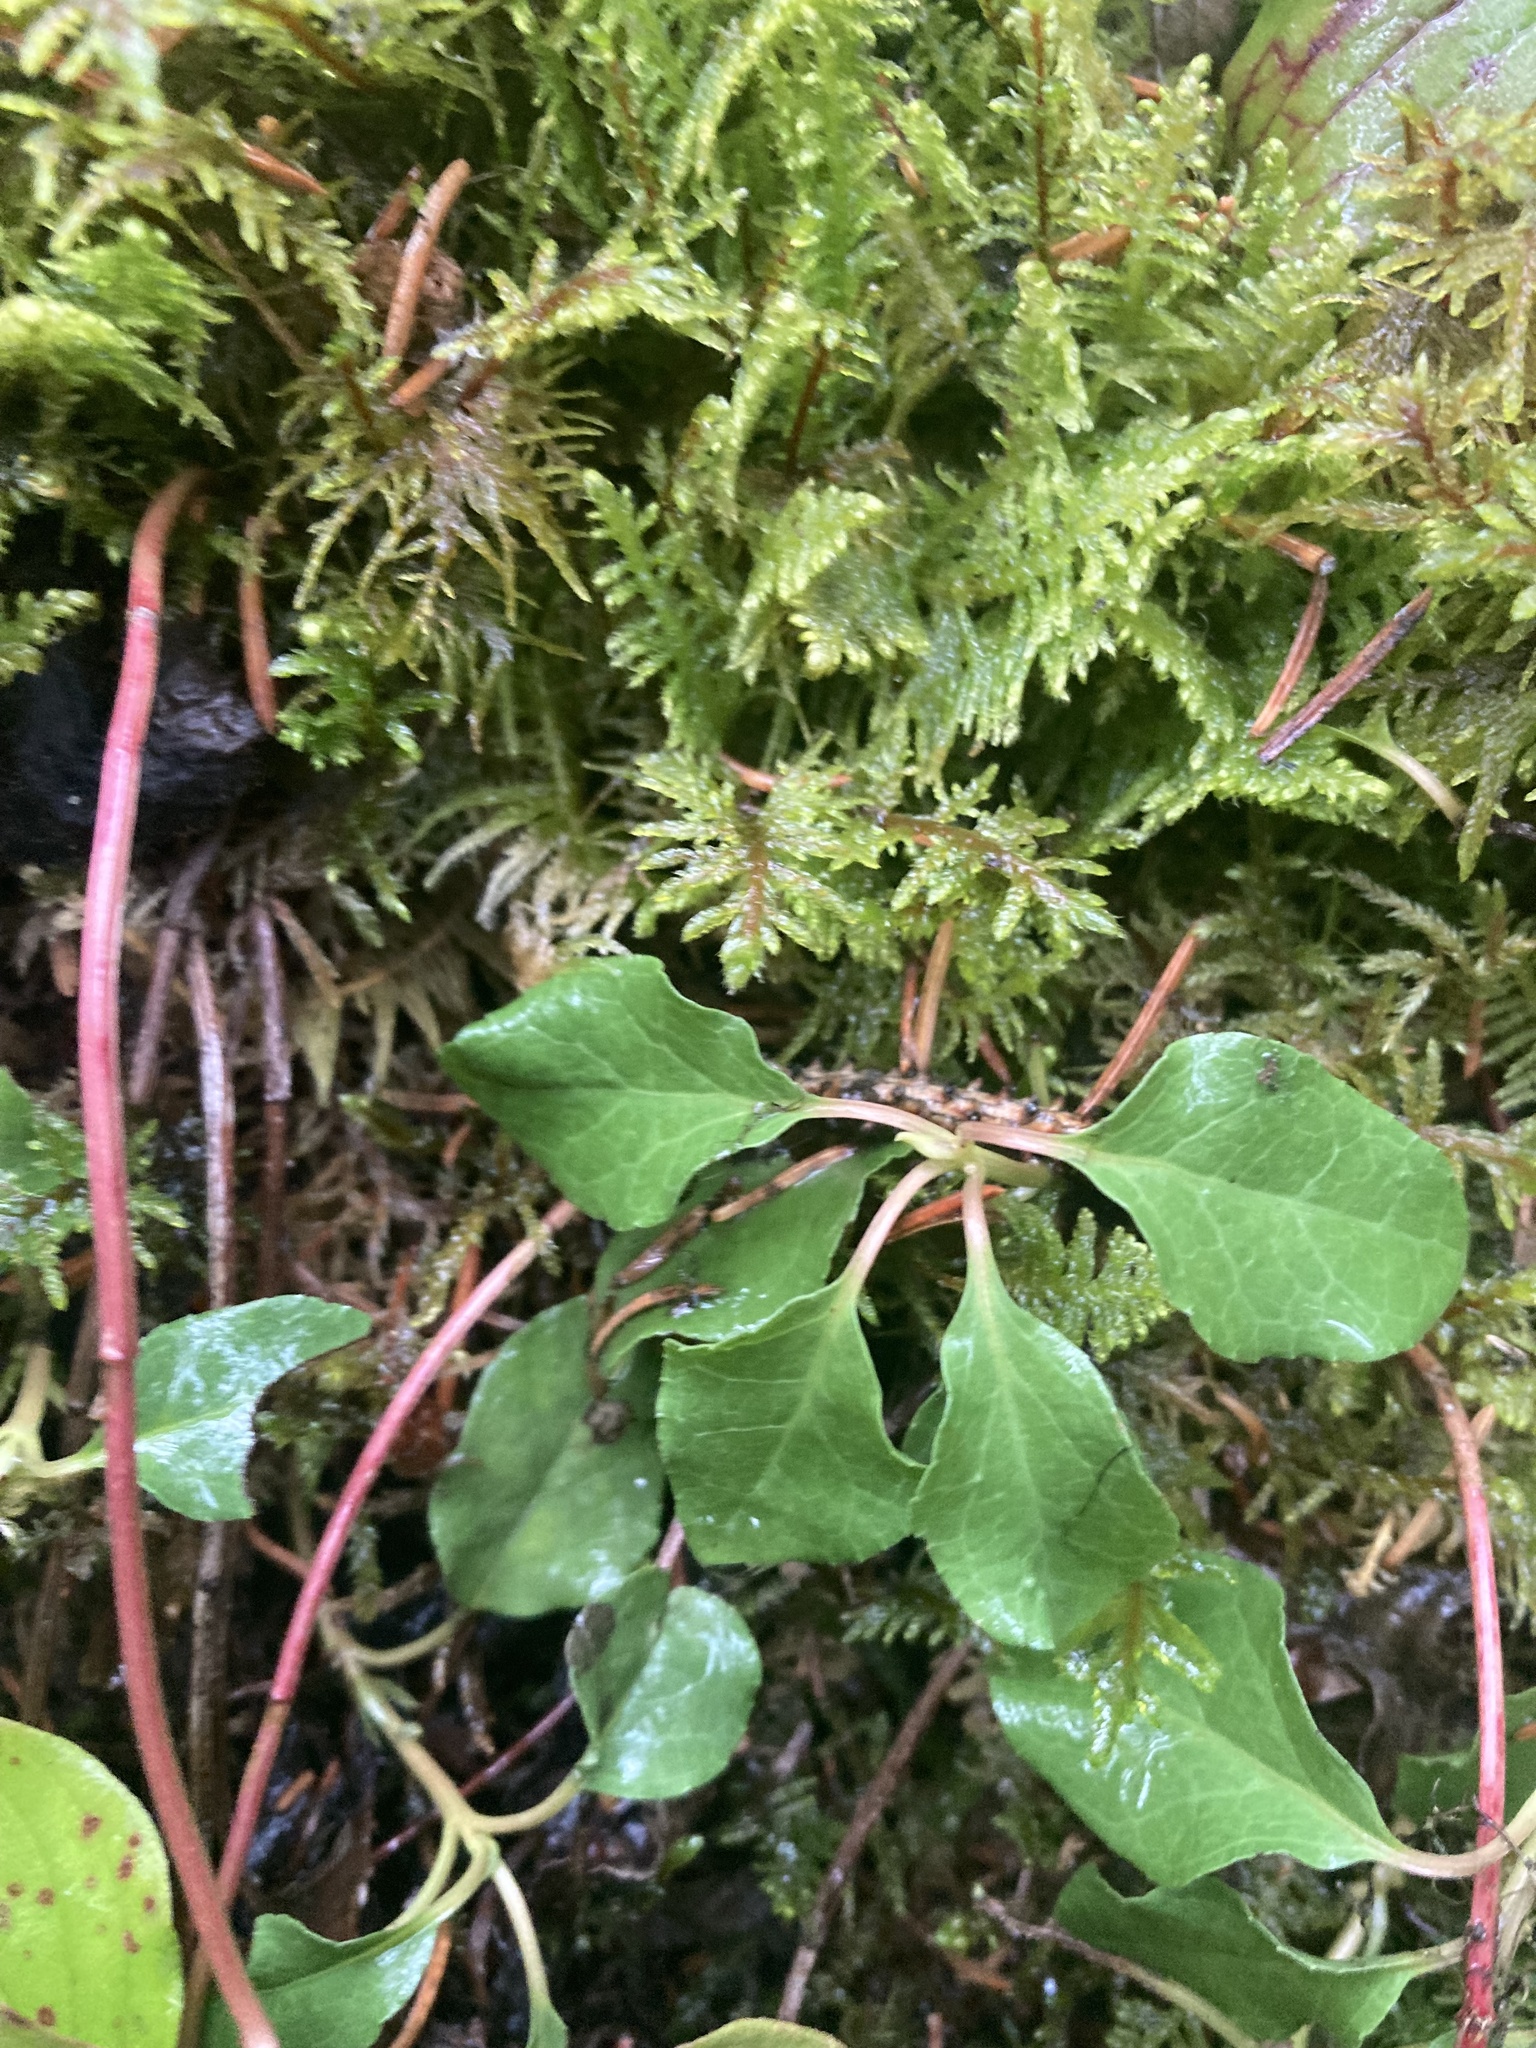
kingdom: Plantae
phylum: Tracheophyta
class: Magnoliopsida
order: Ericales
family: Ericaceae
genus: Orthilia
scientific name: Orthilia secunda
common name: One-sided orthilia
